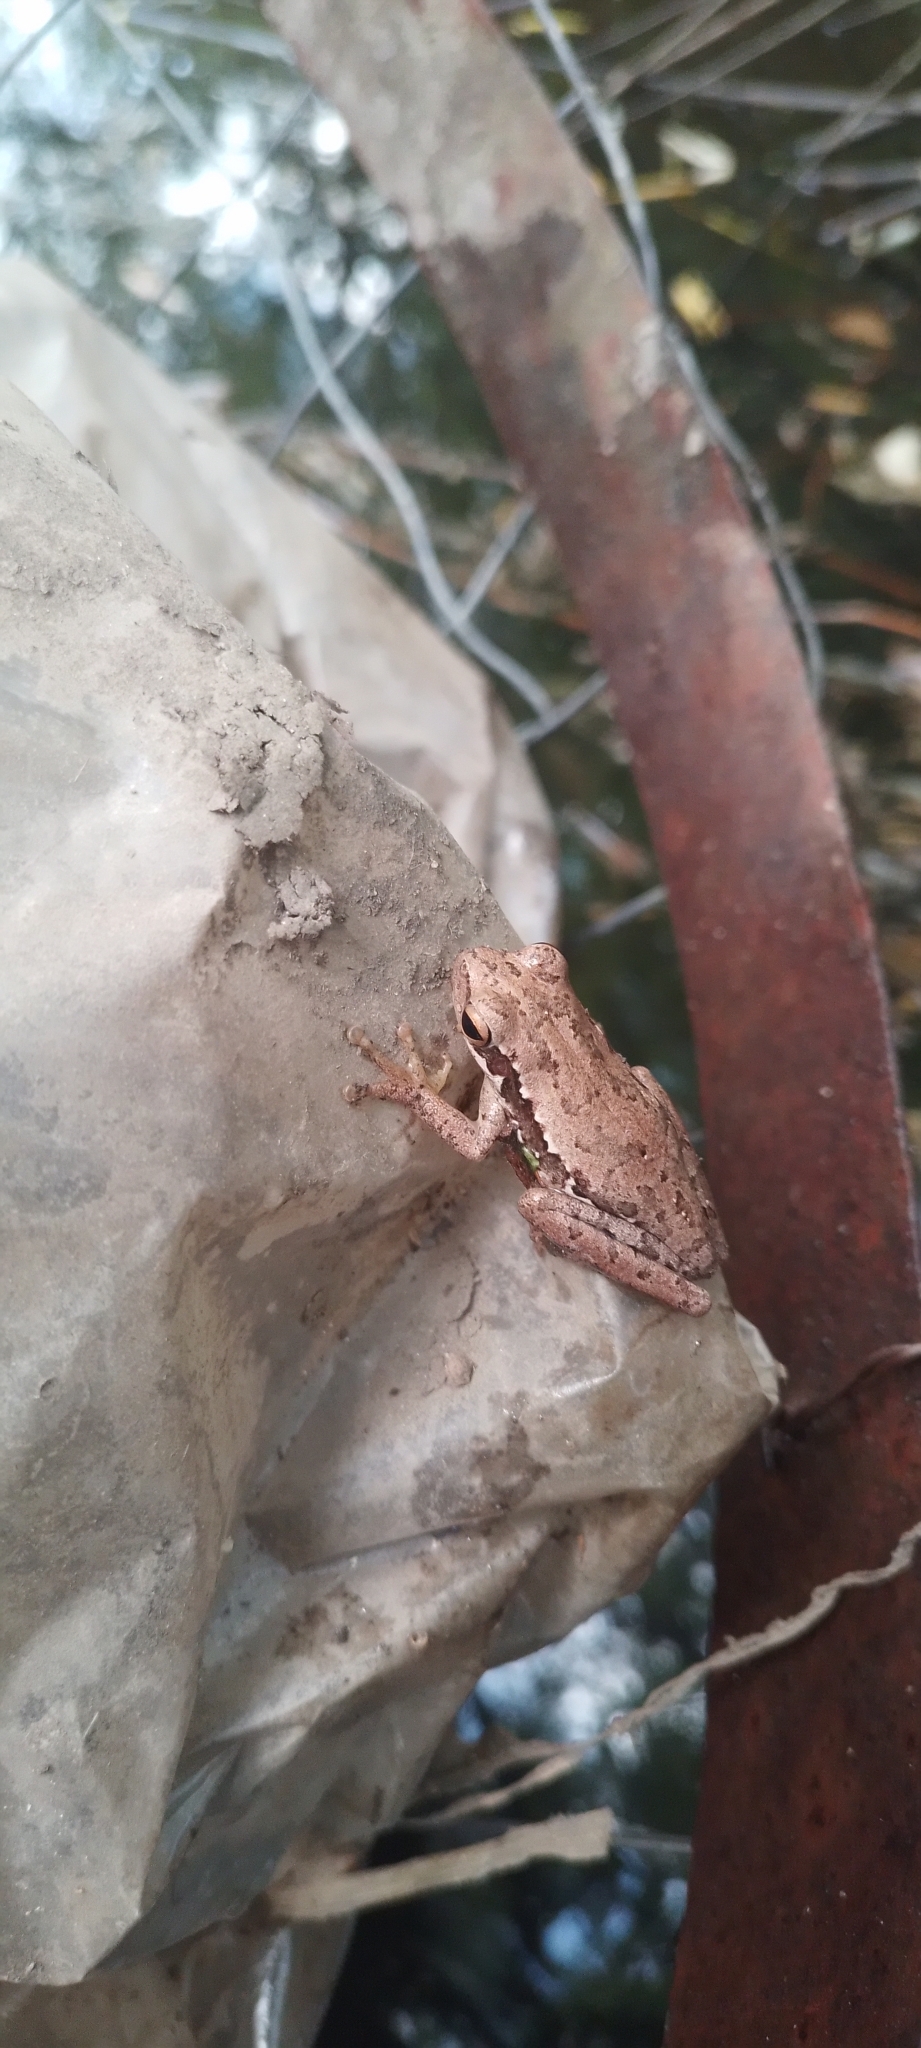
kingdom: Animalia
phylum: Chordata
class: Amphibia
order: Anura
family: Hylidae
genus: Boana
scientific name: Boana pulchella
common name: Montevideo treefrog
